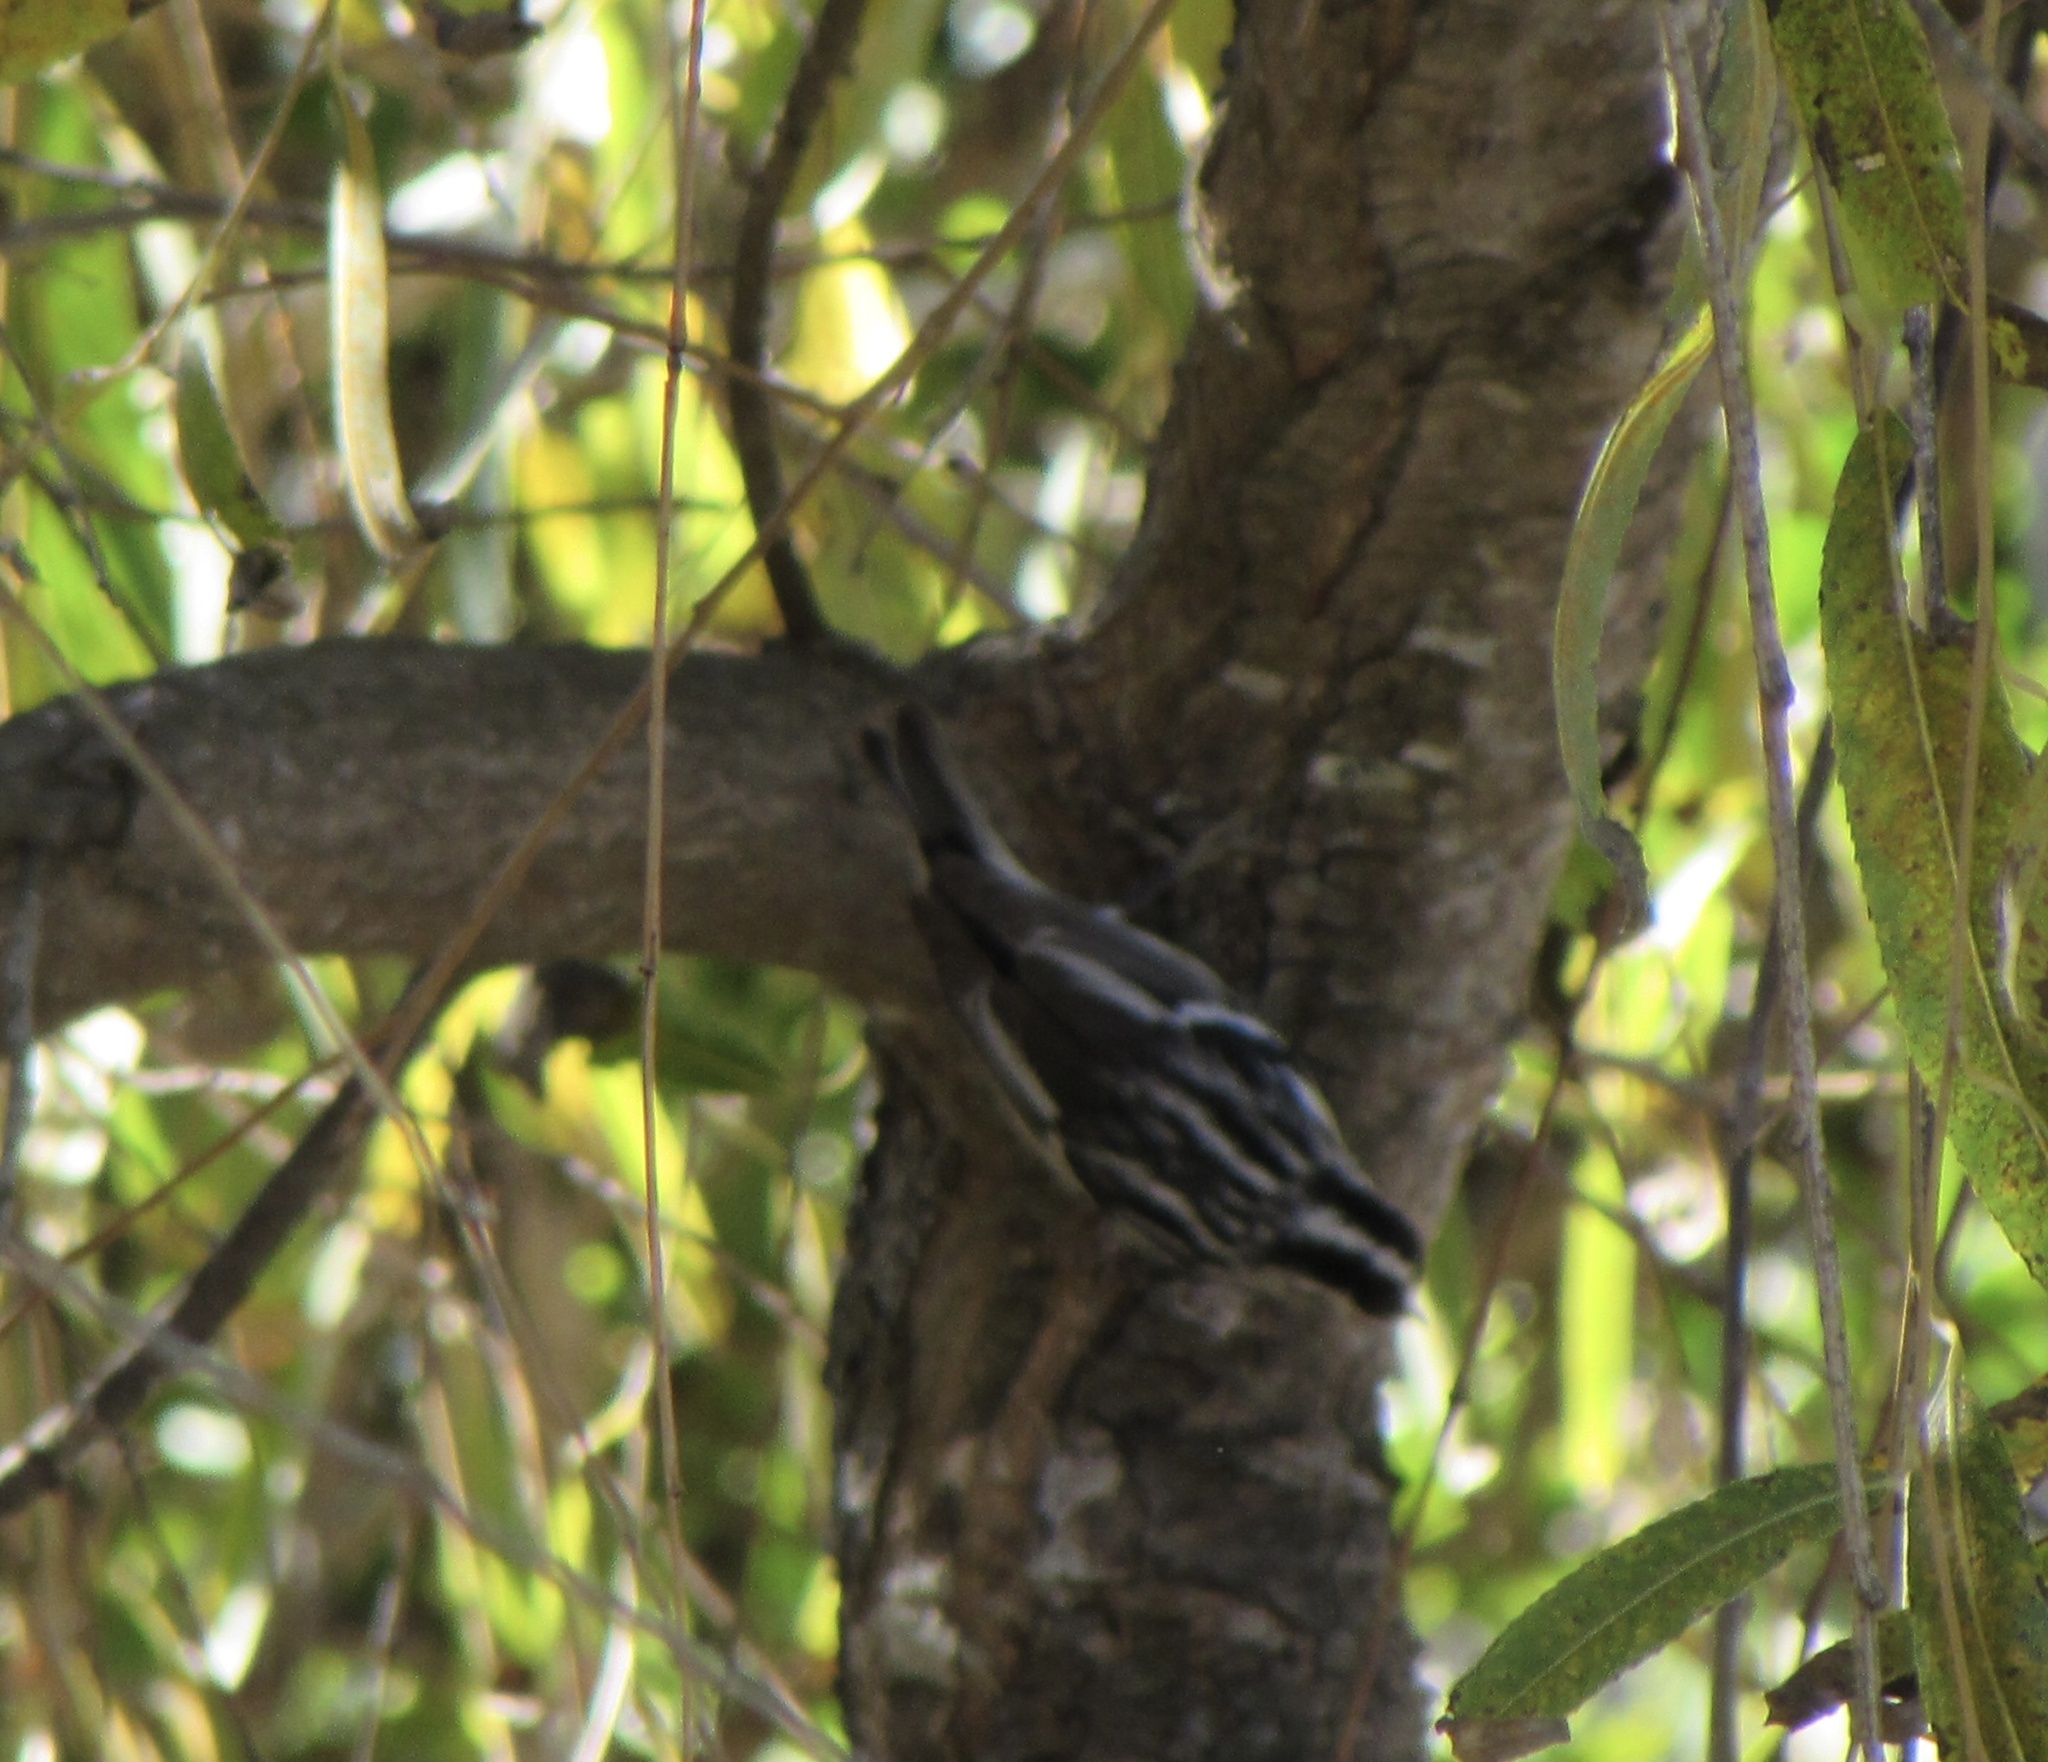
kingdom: Animalia
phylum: Chordata
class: Aves
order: Passeriformes
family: Parulidae
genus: Mniotilta
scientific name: Mniotilta varia
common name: Black-and-white warbler
